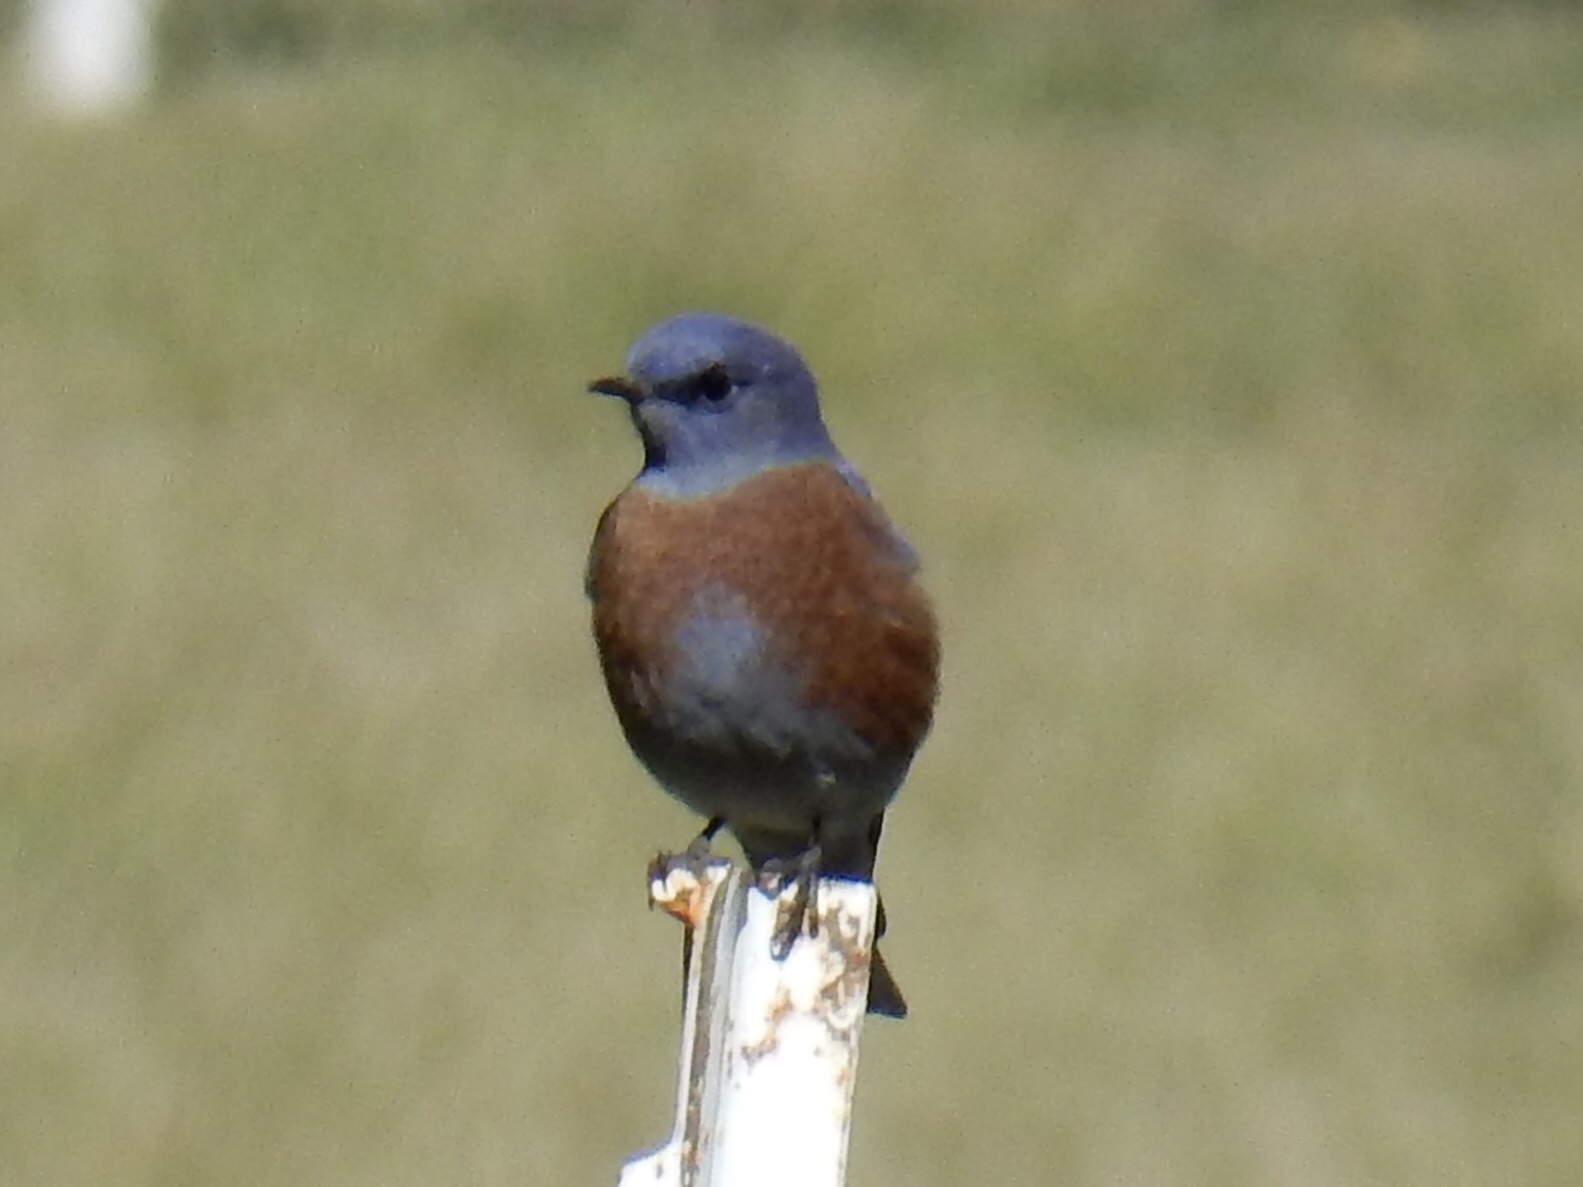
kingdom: Animalia
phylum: Chordata
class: Aves
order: Passeriformes
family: Turdidae
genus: Sialia
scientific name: Sialia mexicana
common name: Western bluebird
